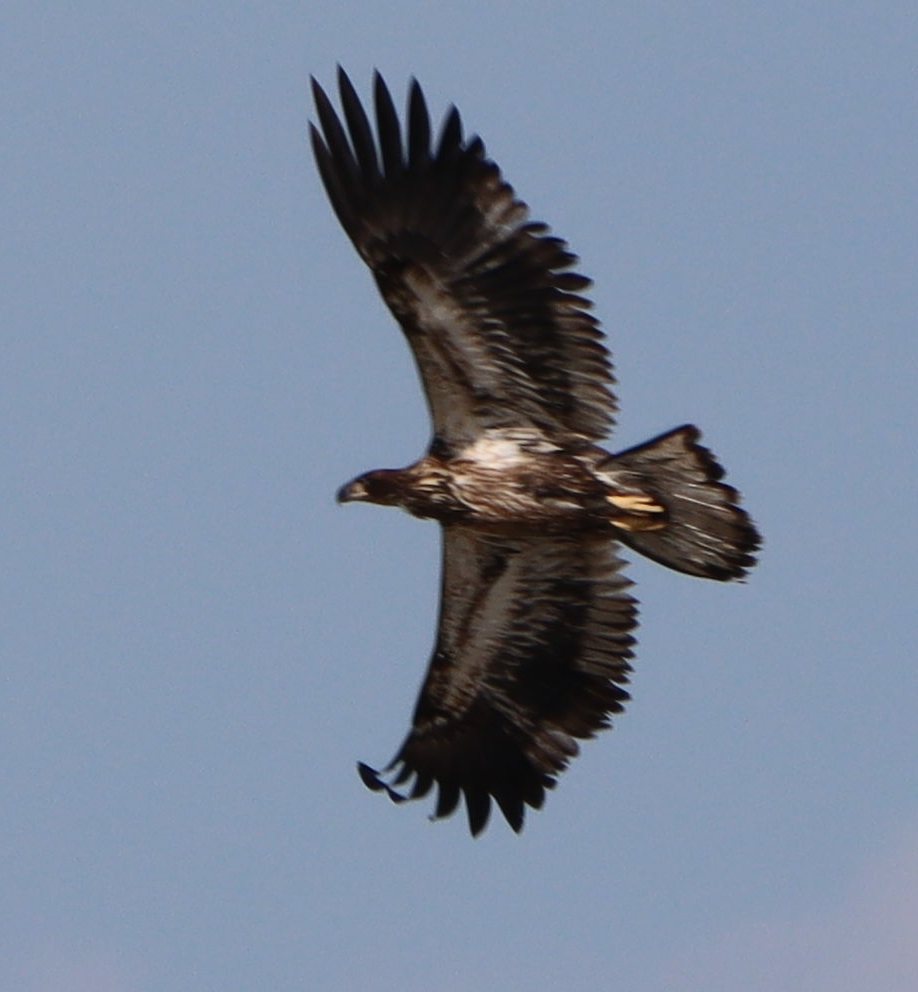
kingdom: Animalia
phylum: Chordata
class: Aves
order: Accipitriformes
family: Accipitridae
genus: Haliaeetus
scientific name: Haliaeetus leucocephalus
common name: Bald eagle
